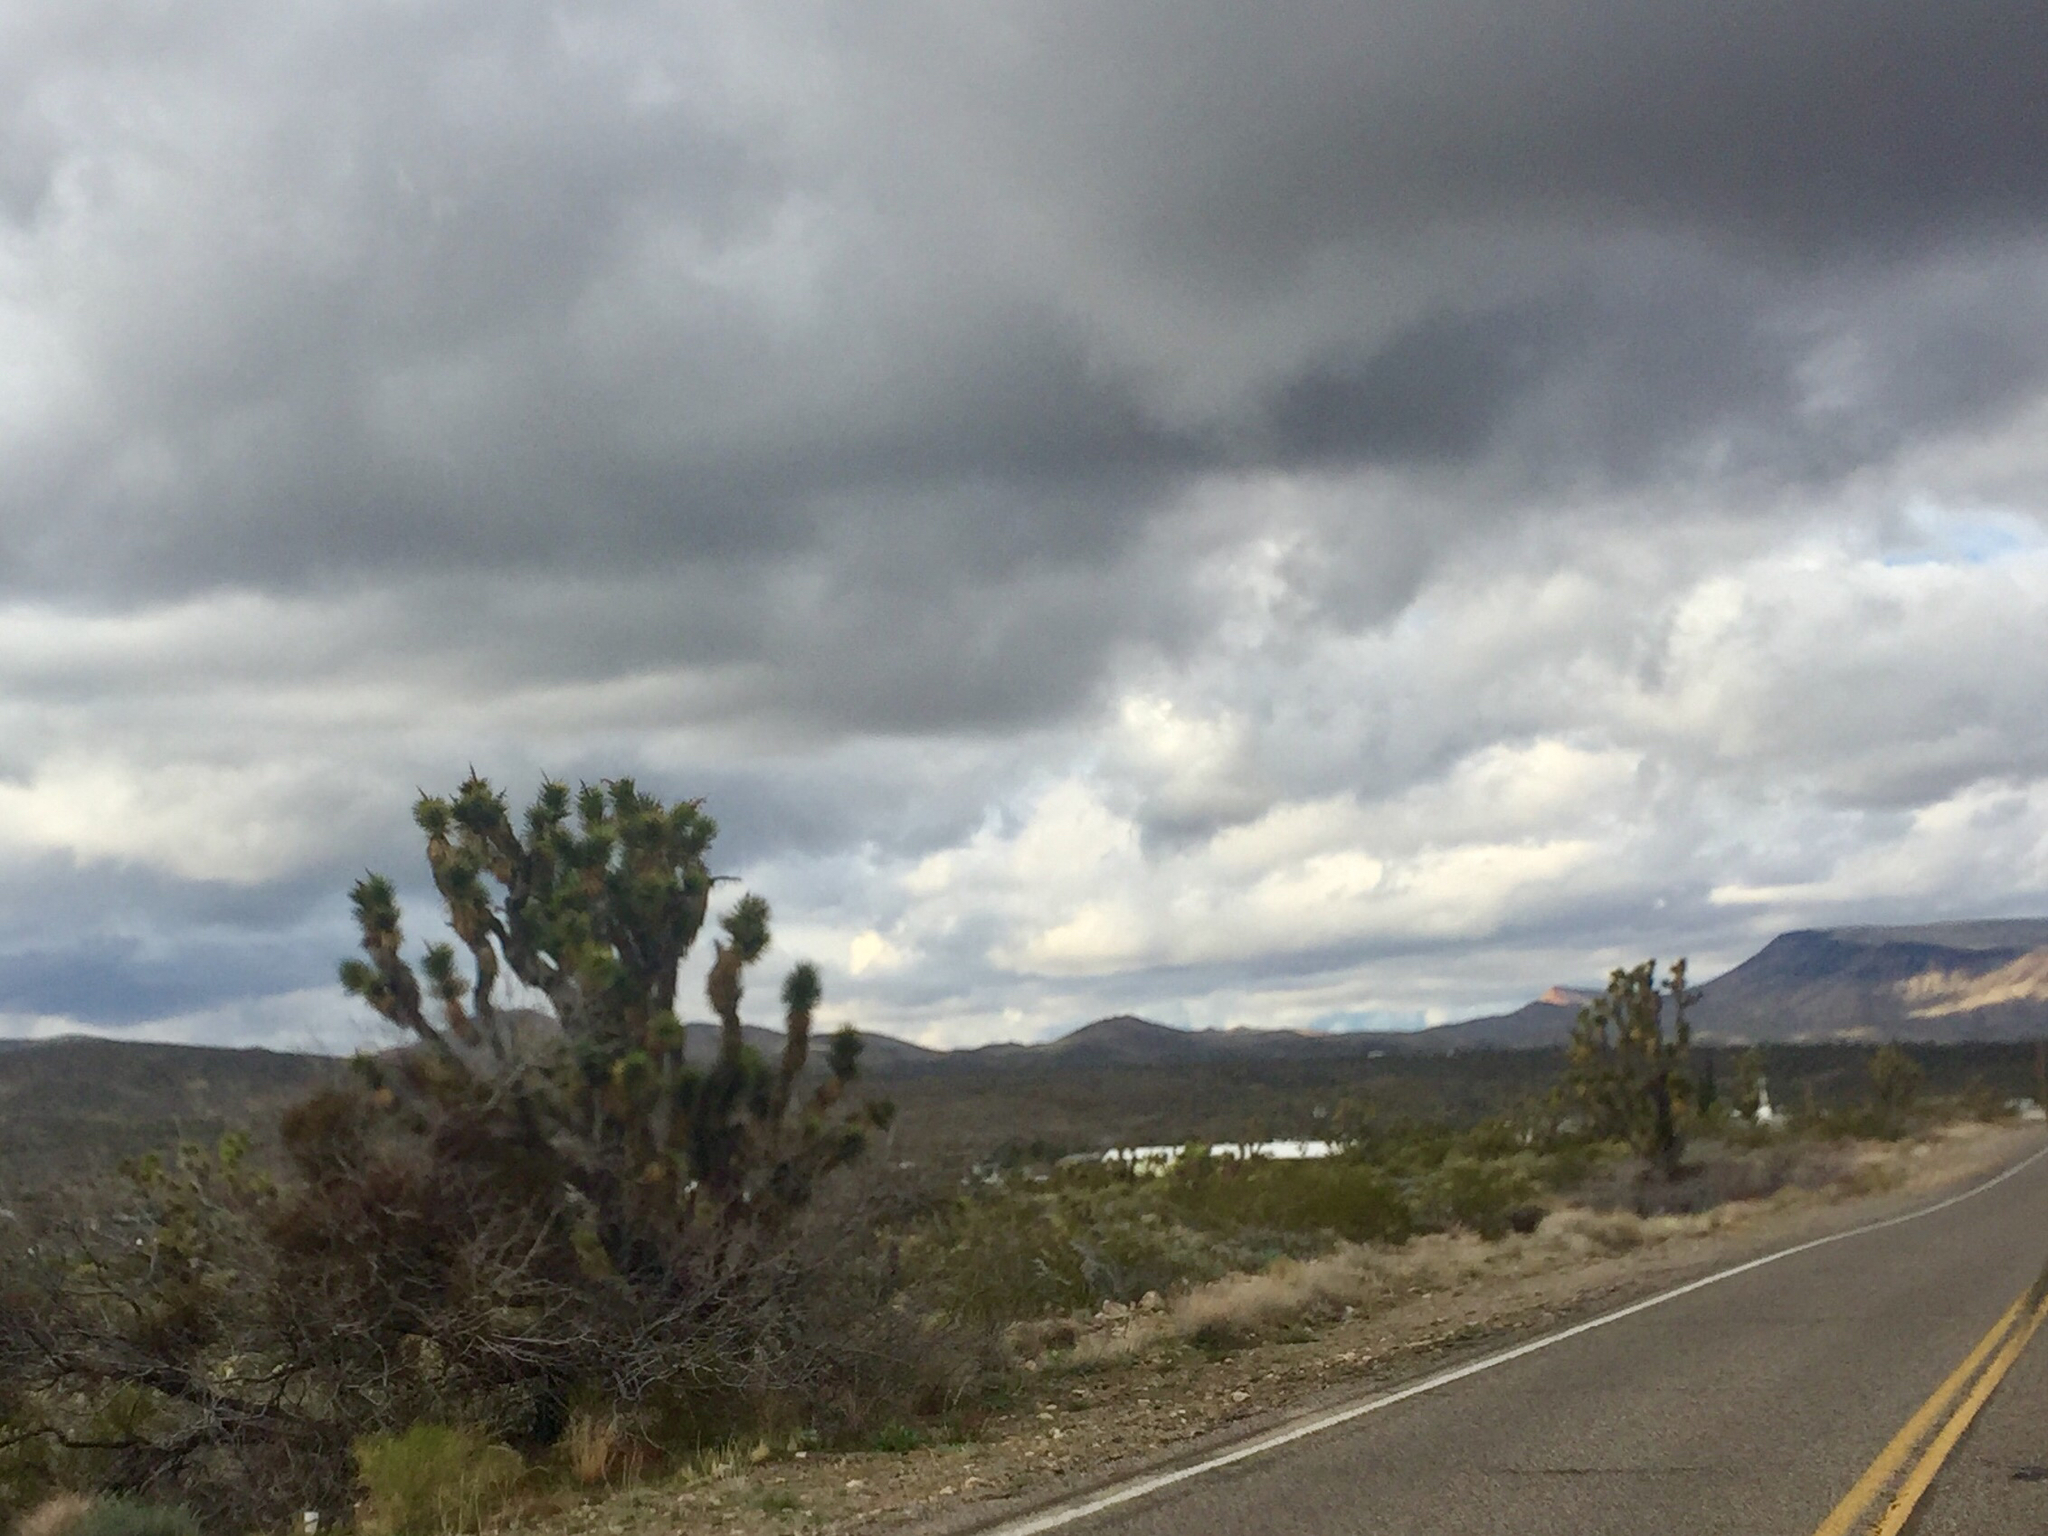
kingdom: Plantae
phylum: Tracheophyta
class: Liliopsida
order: Asparagales
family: Asparagaceae
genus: Yucca
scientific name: Yucca brevifolia
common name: Joshua tree
